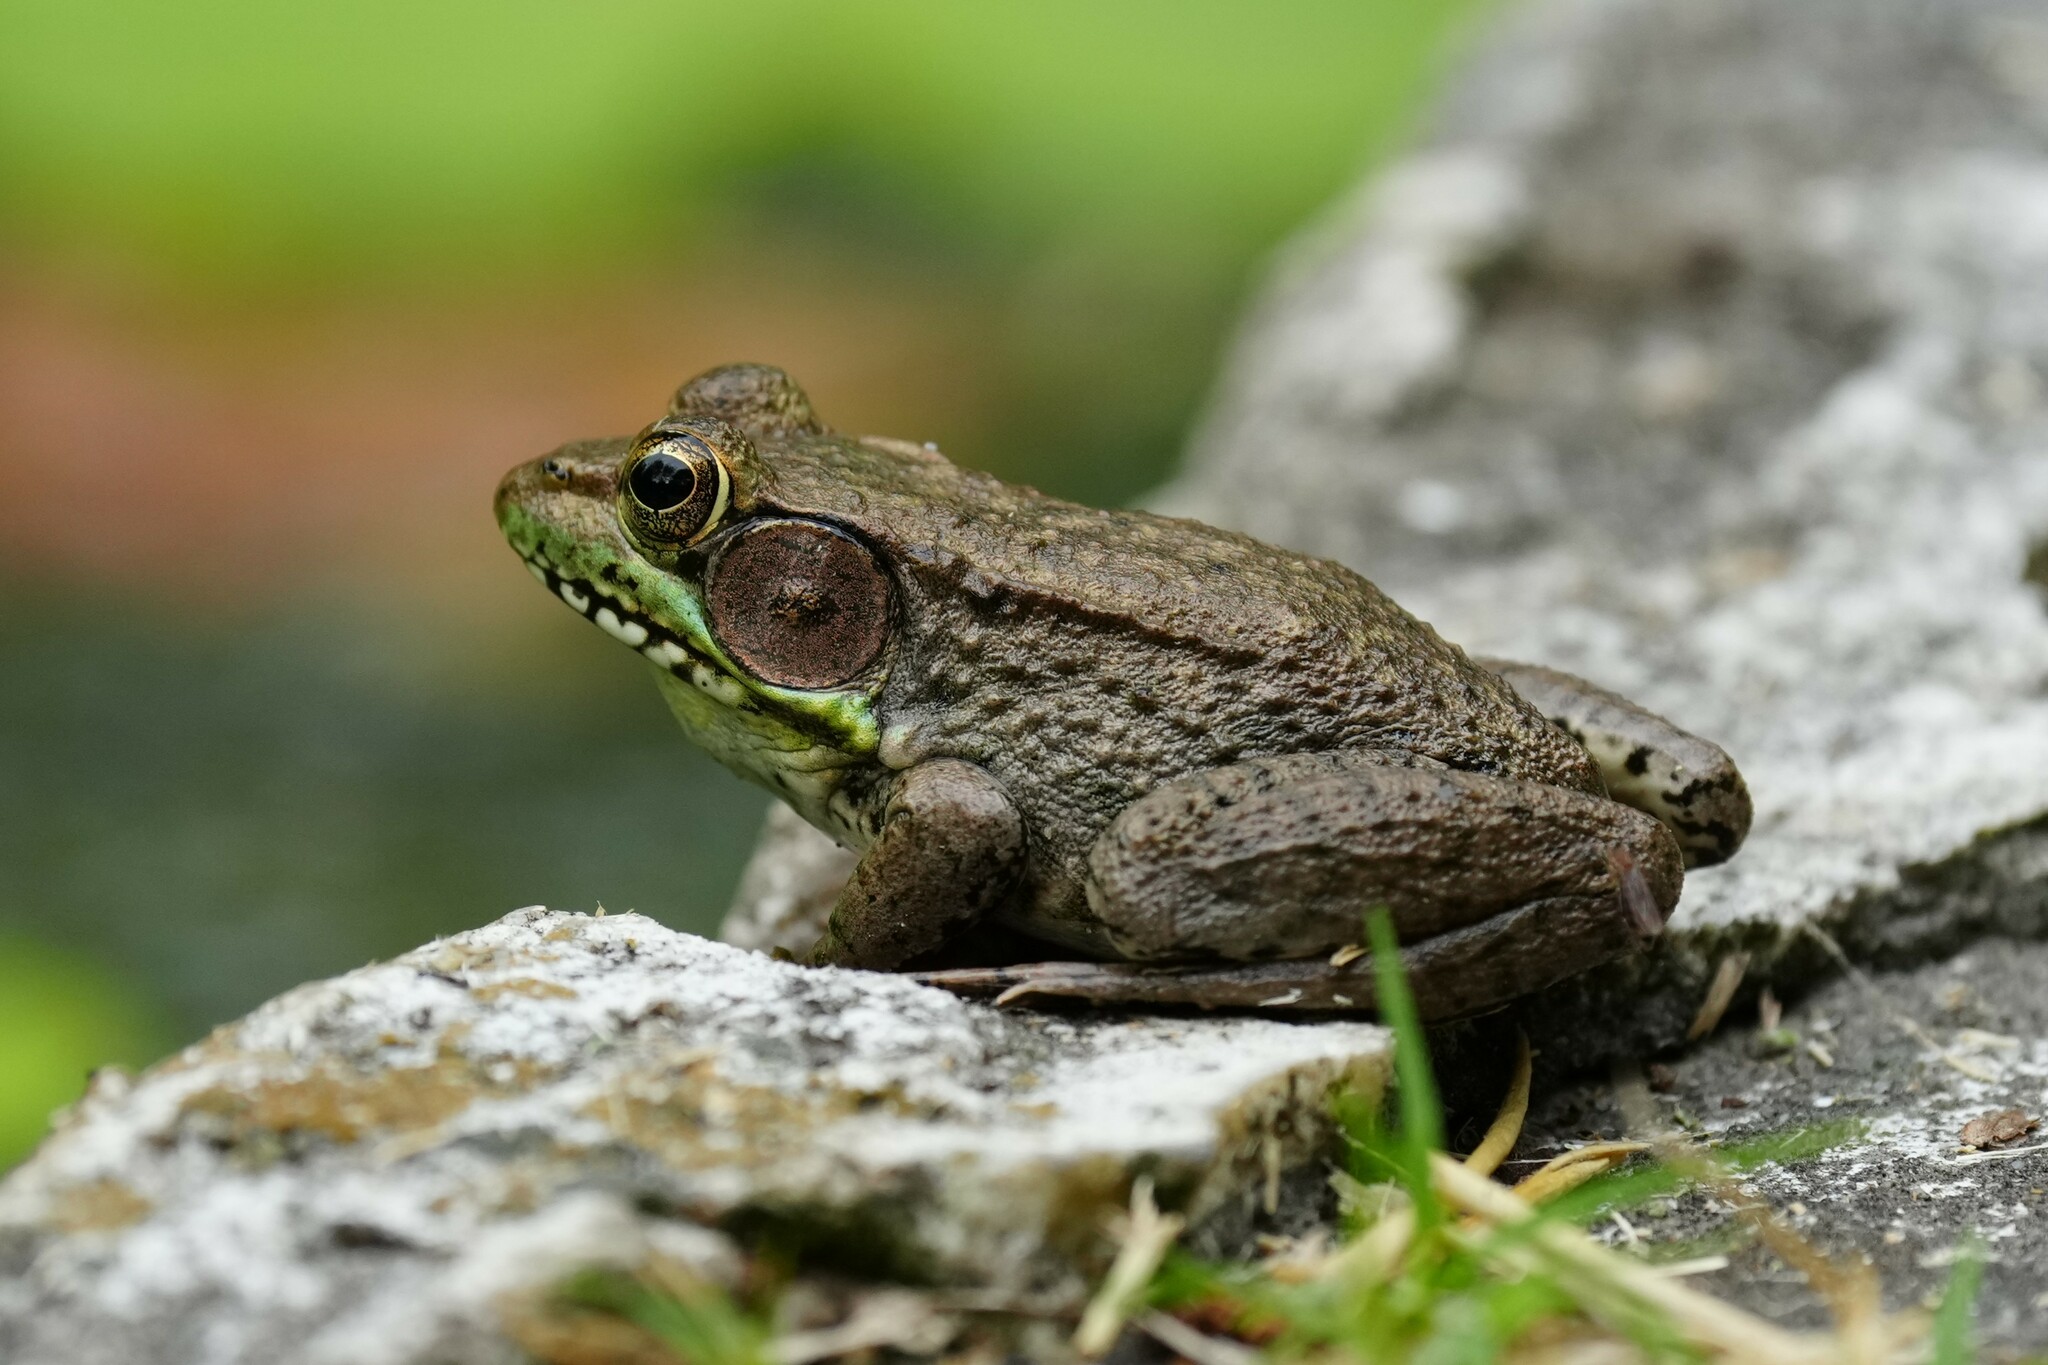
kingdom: Animalia
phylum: Chordata
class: Amphibia
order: Anura
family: Ranidae
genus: Lithobates
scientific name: Lithobates clamitans
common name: Green frog
